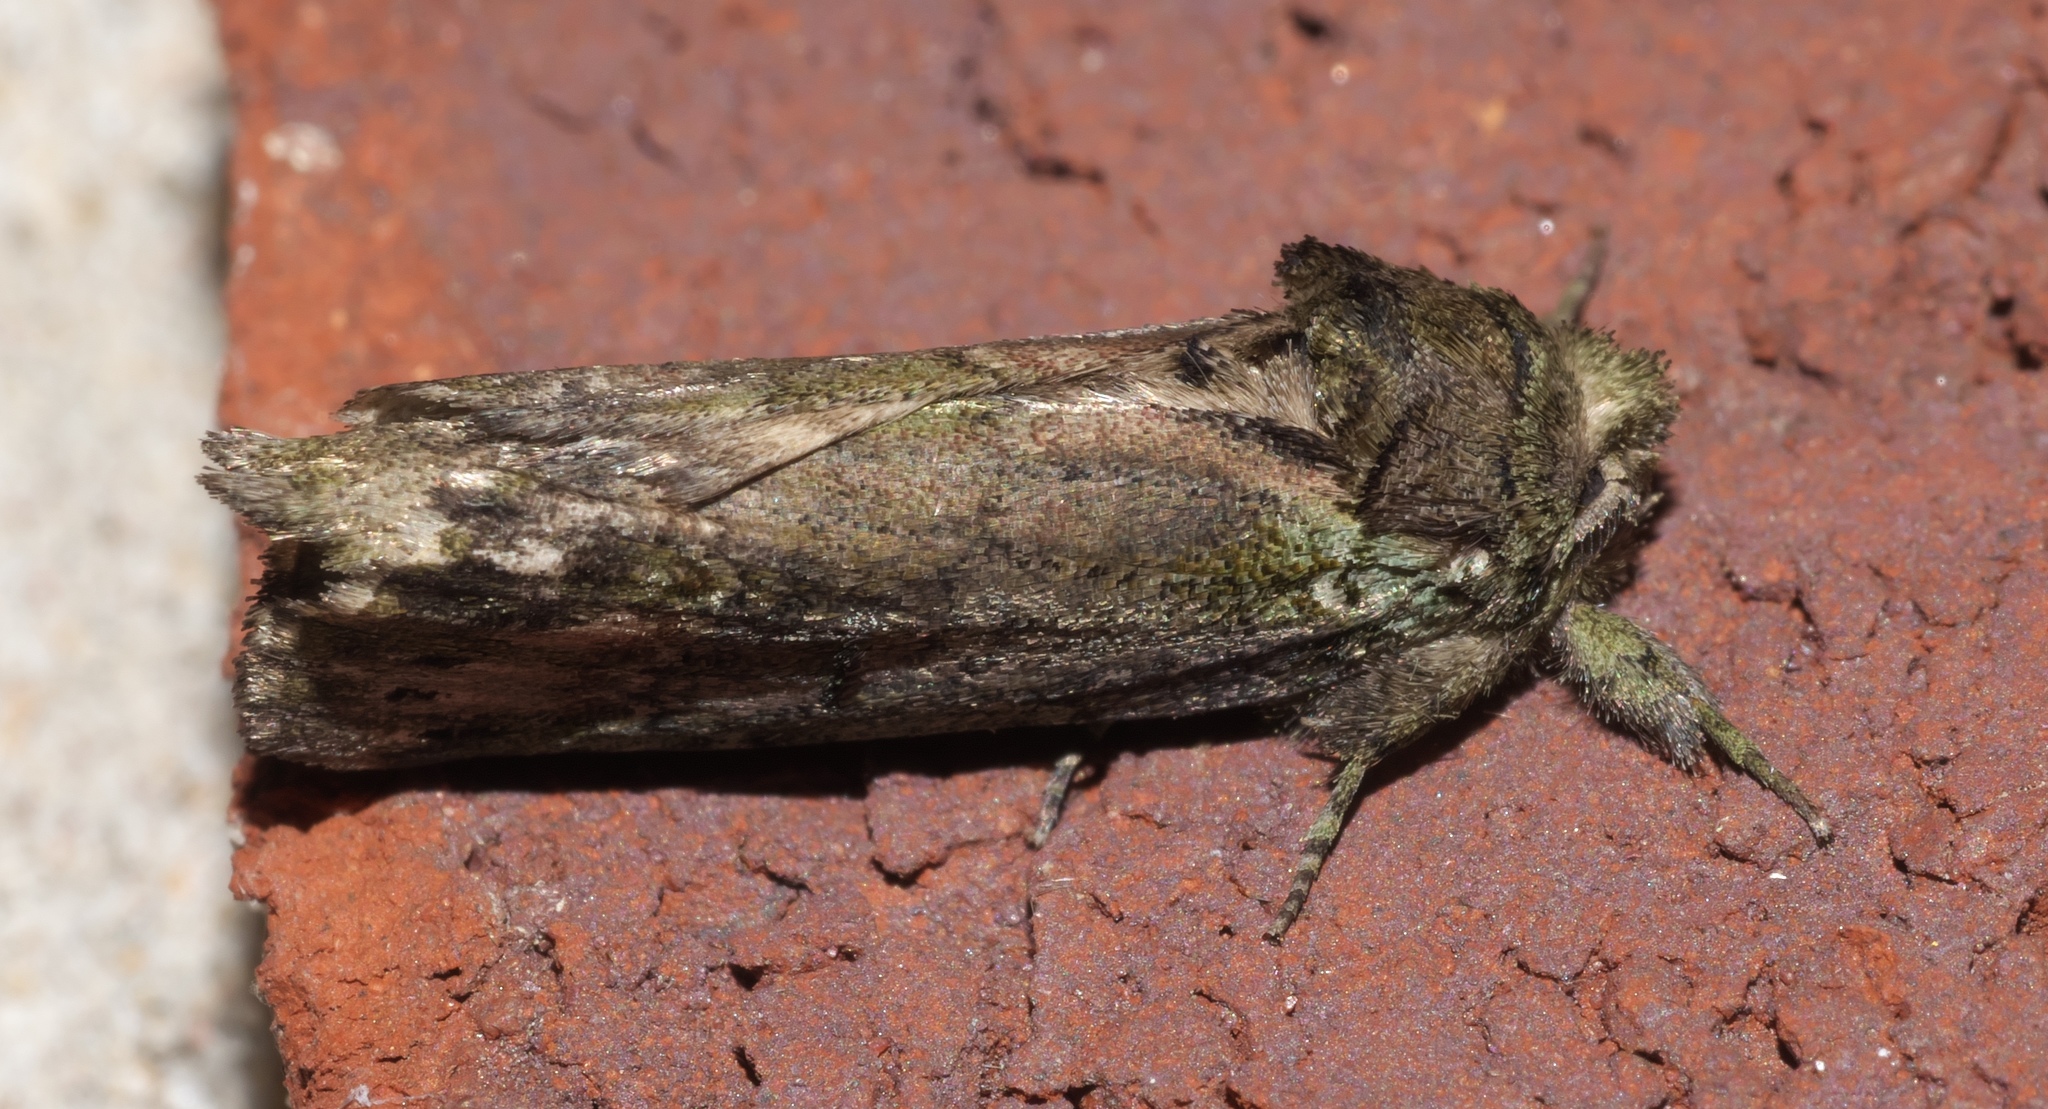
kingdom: Animalia
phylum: Arthropoda
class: Insecta
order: Lepidoptera
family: Notodontidae
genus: Schizura
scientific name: Schizura
